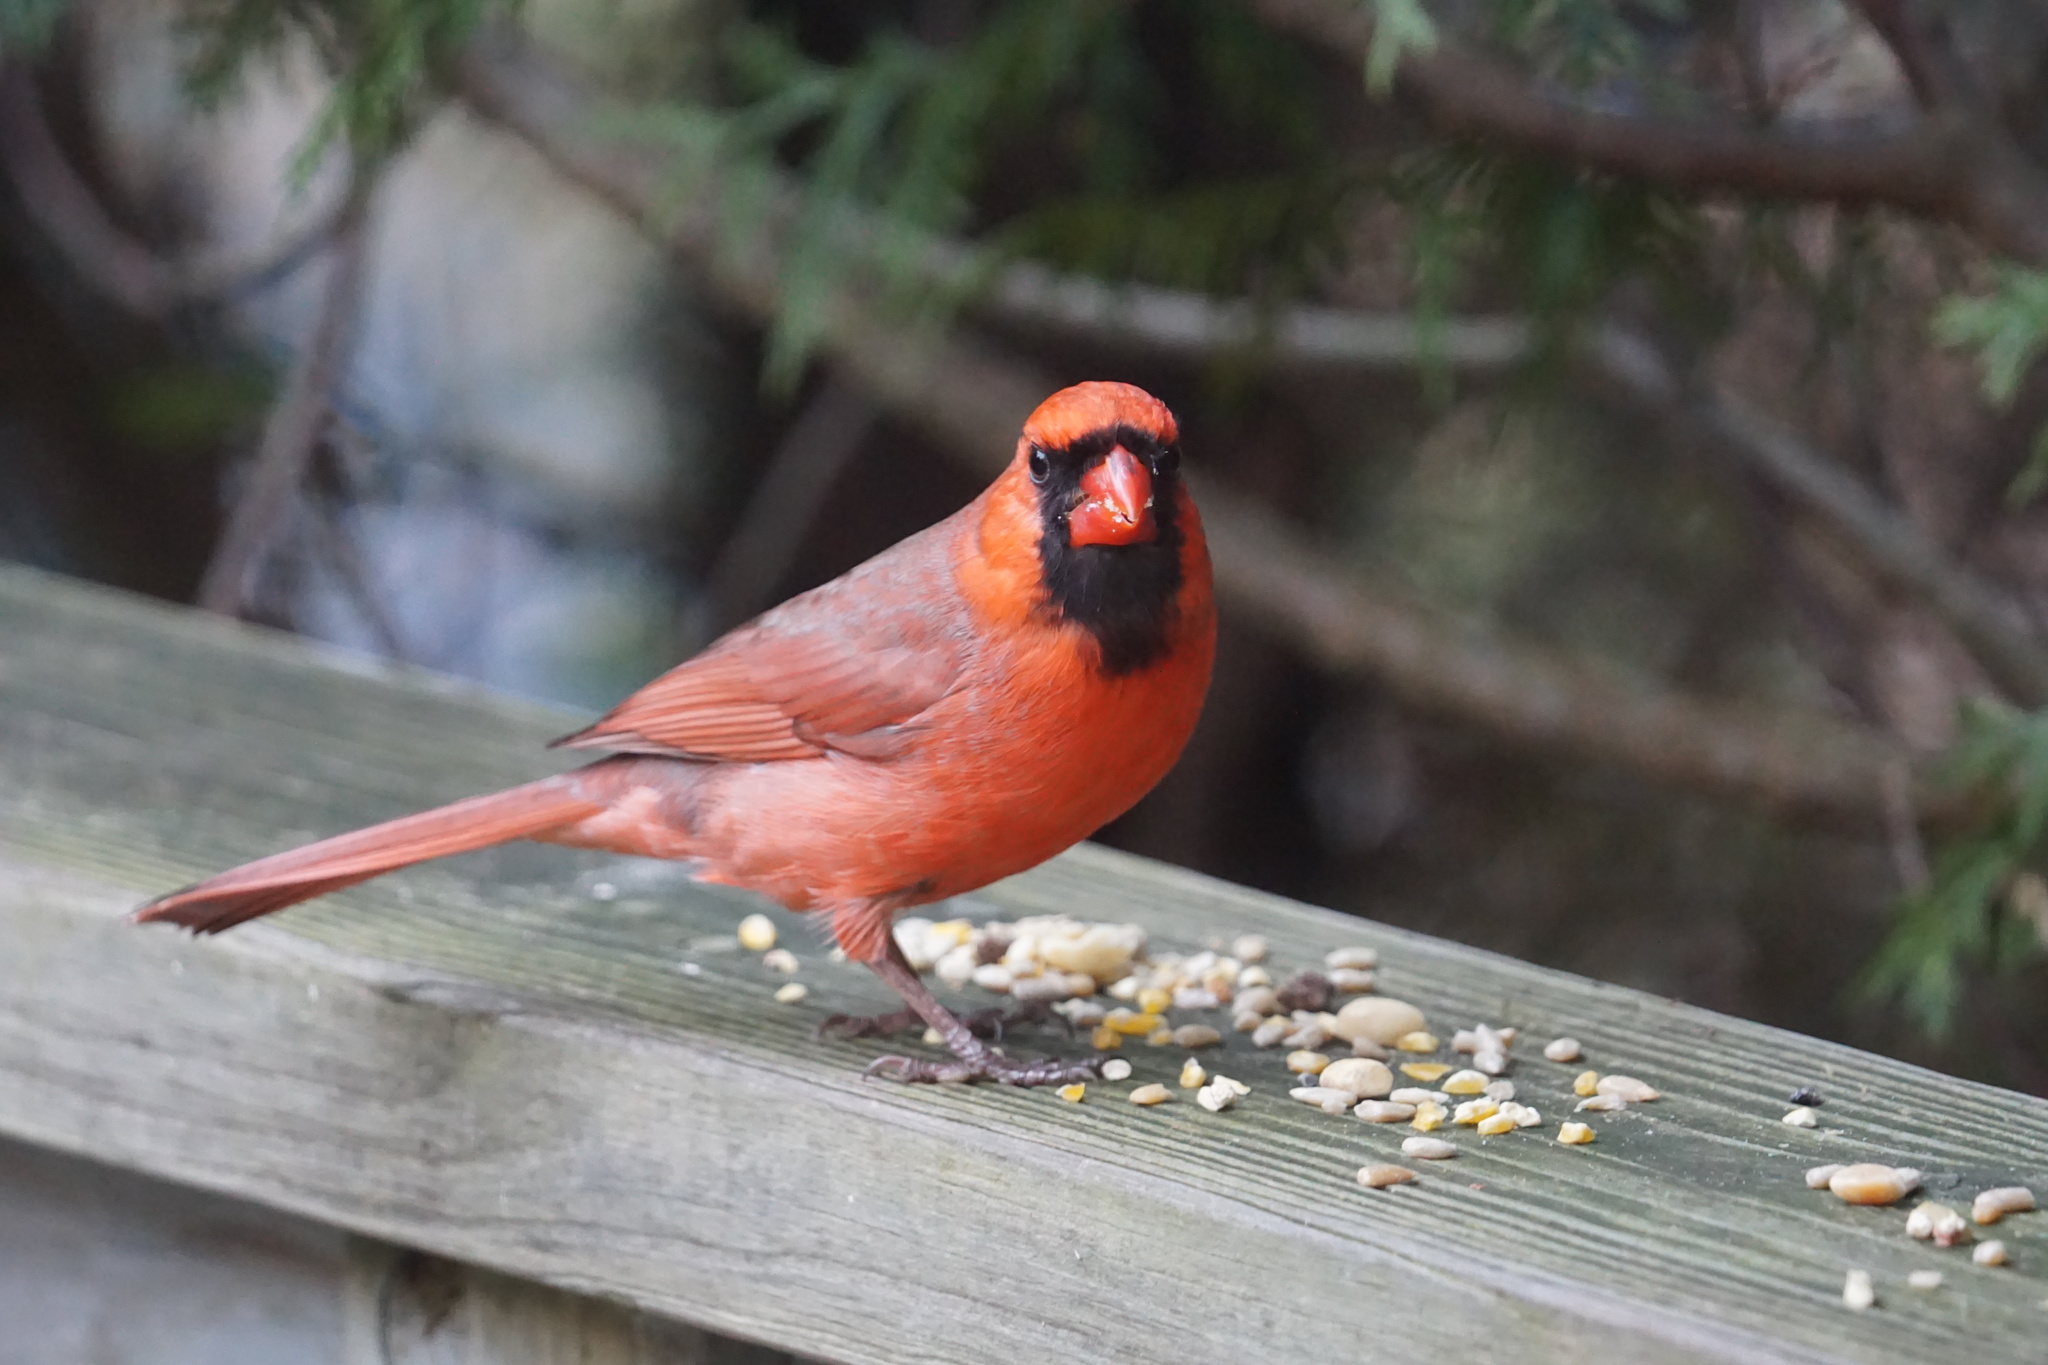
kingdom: Animalia
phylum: Chordata
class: Aves
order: Passeriformes
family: Cardinalidae
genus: Cardinalis
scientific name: Cardinalis cardinalis
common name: Northern cardinal
